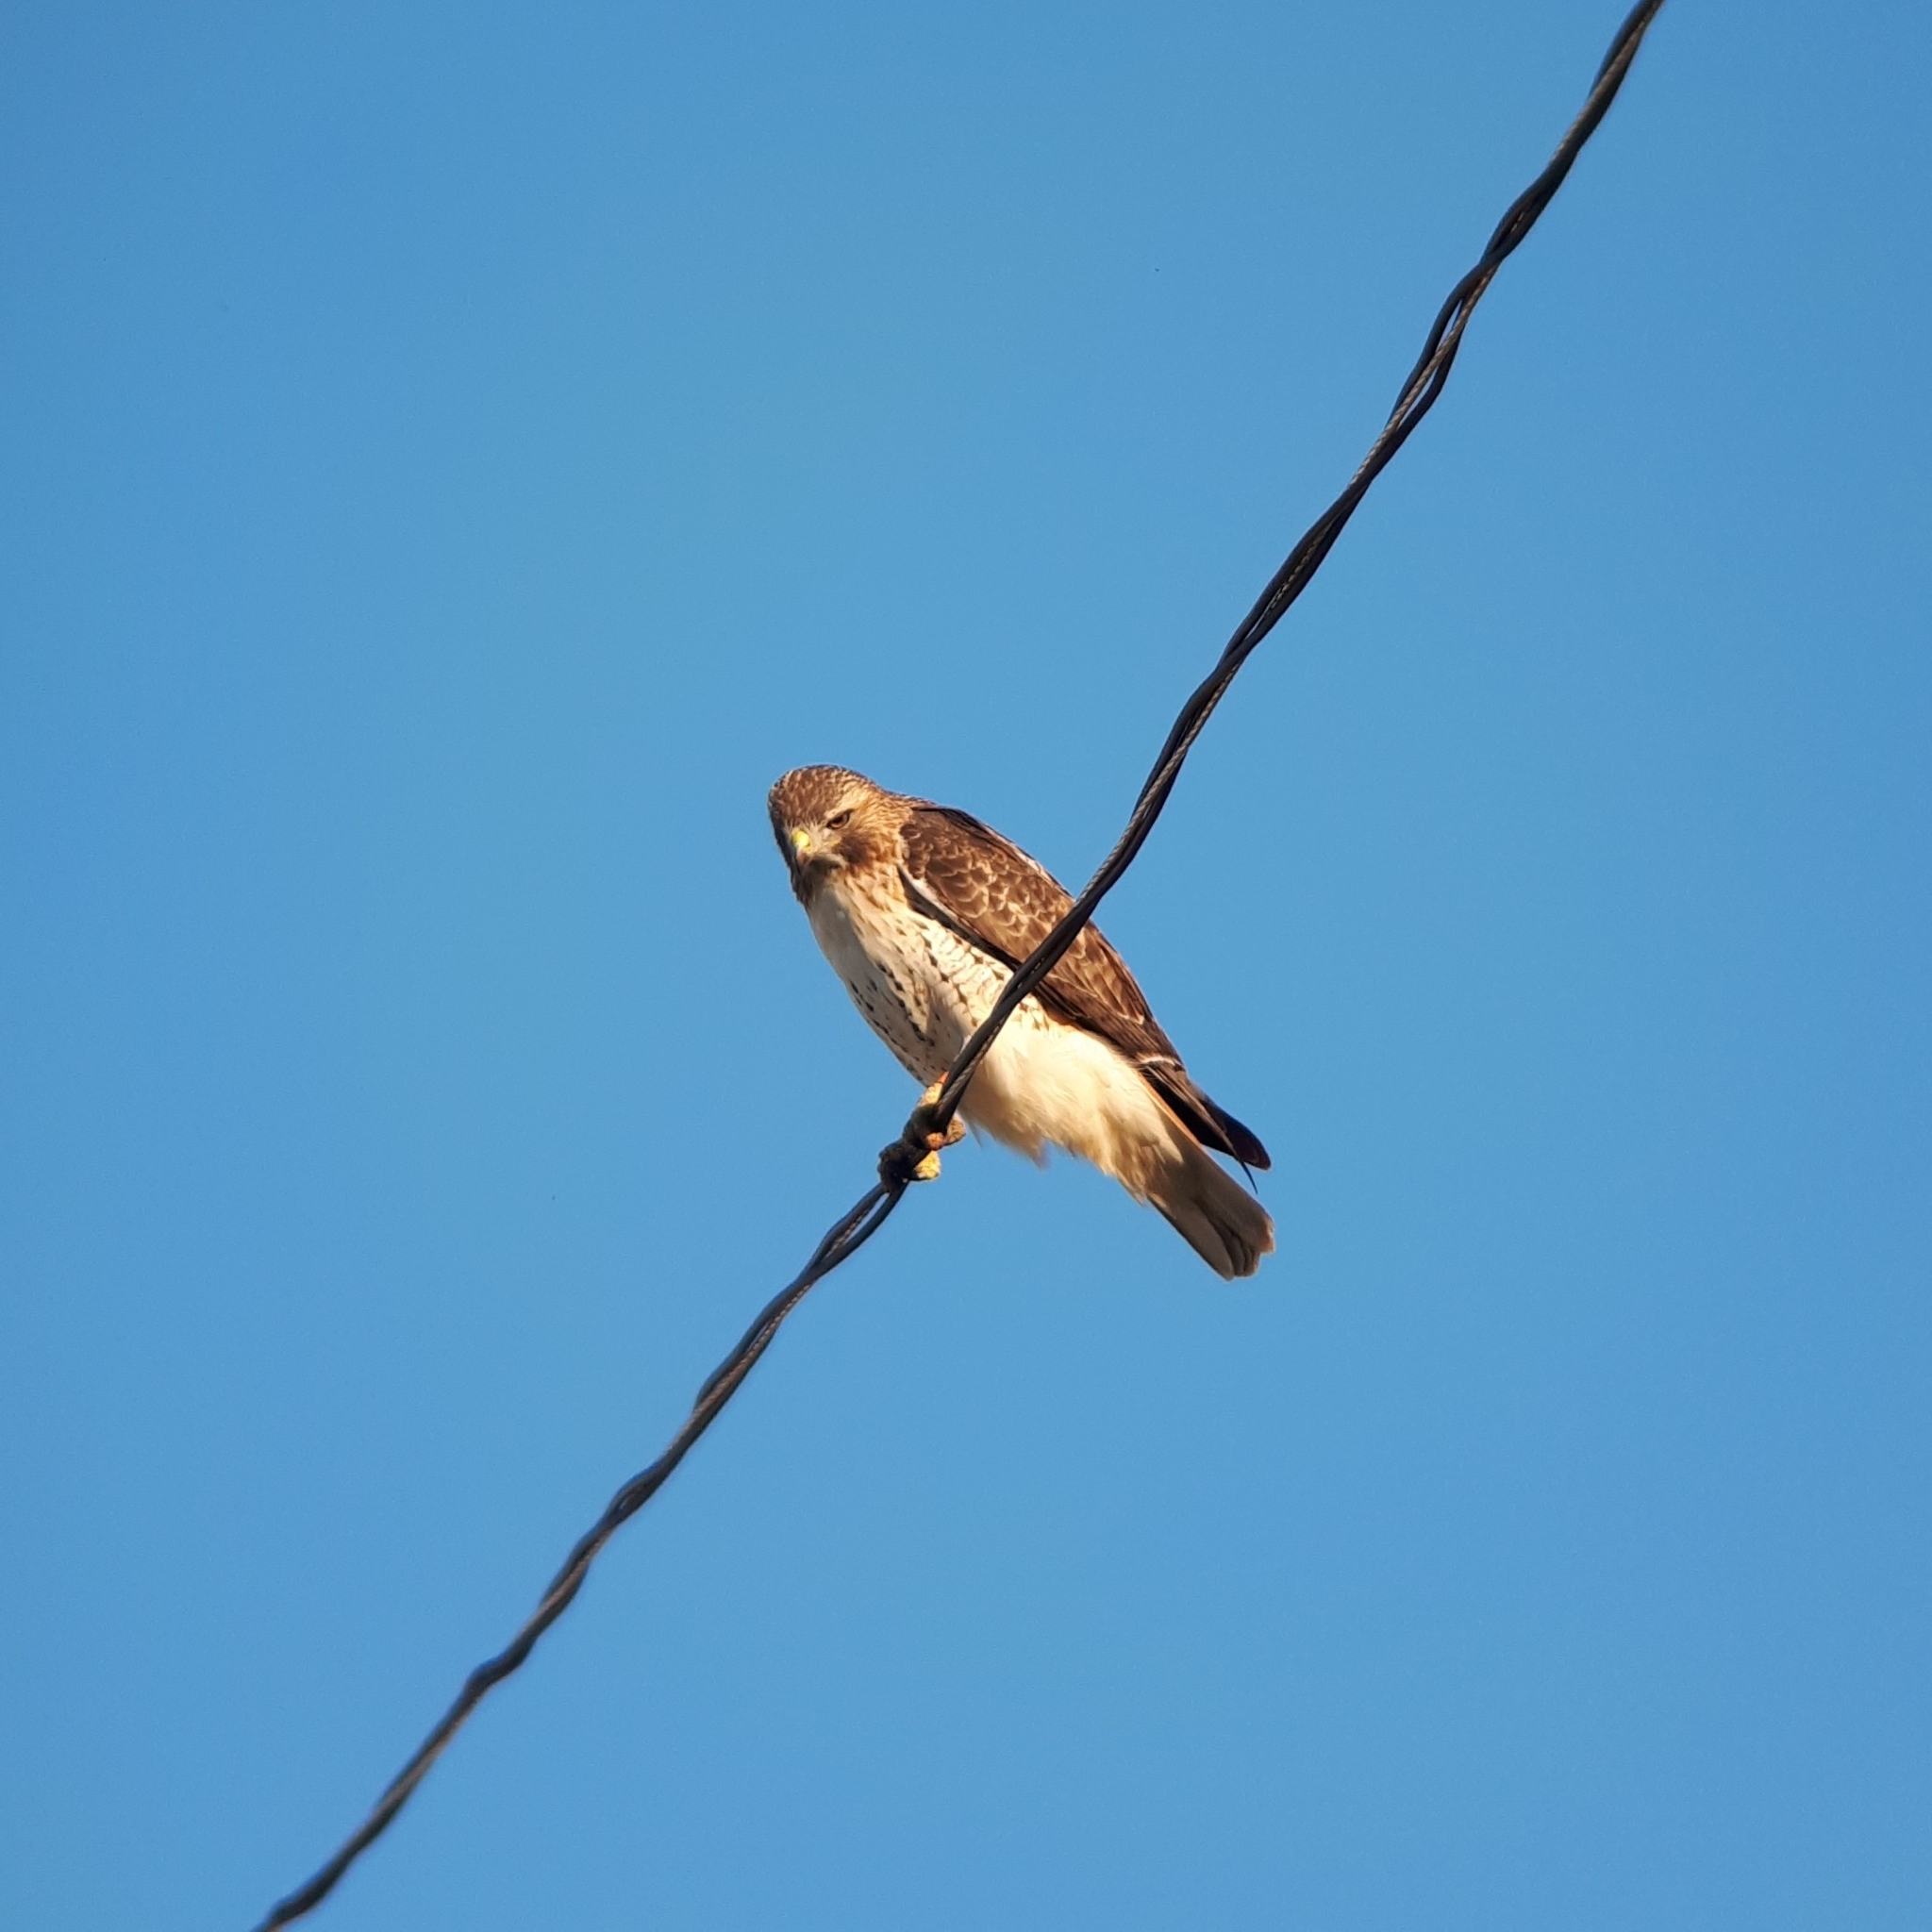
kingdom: Animalia
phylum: Chordata
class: Aves
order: Accipitriformes
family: Accipitridae
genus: Buteo
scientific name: Buteo jamaicensis
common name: Red-tailed hawk
